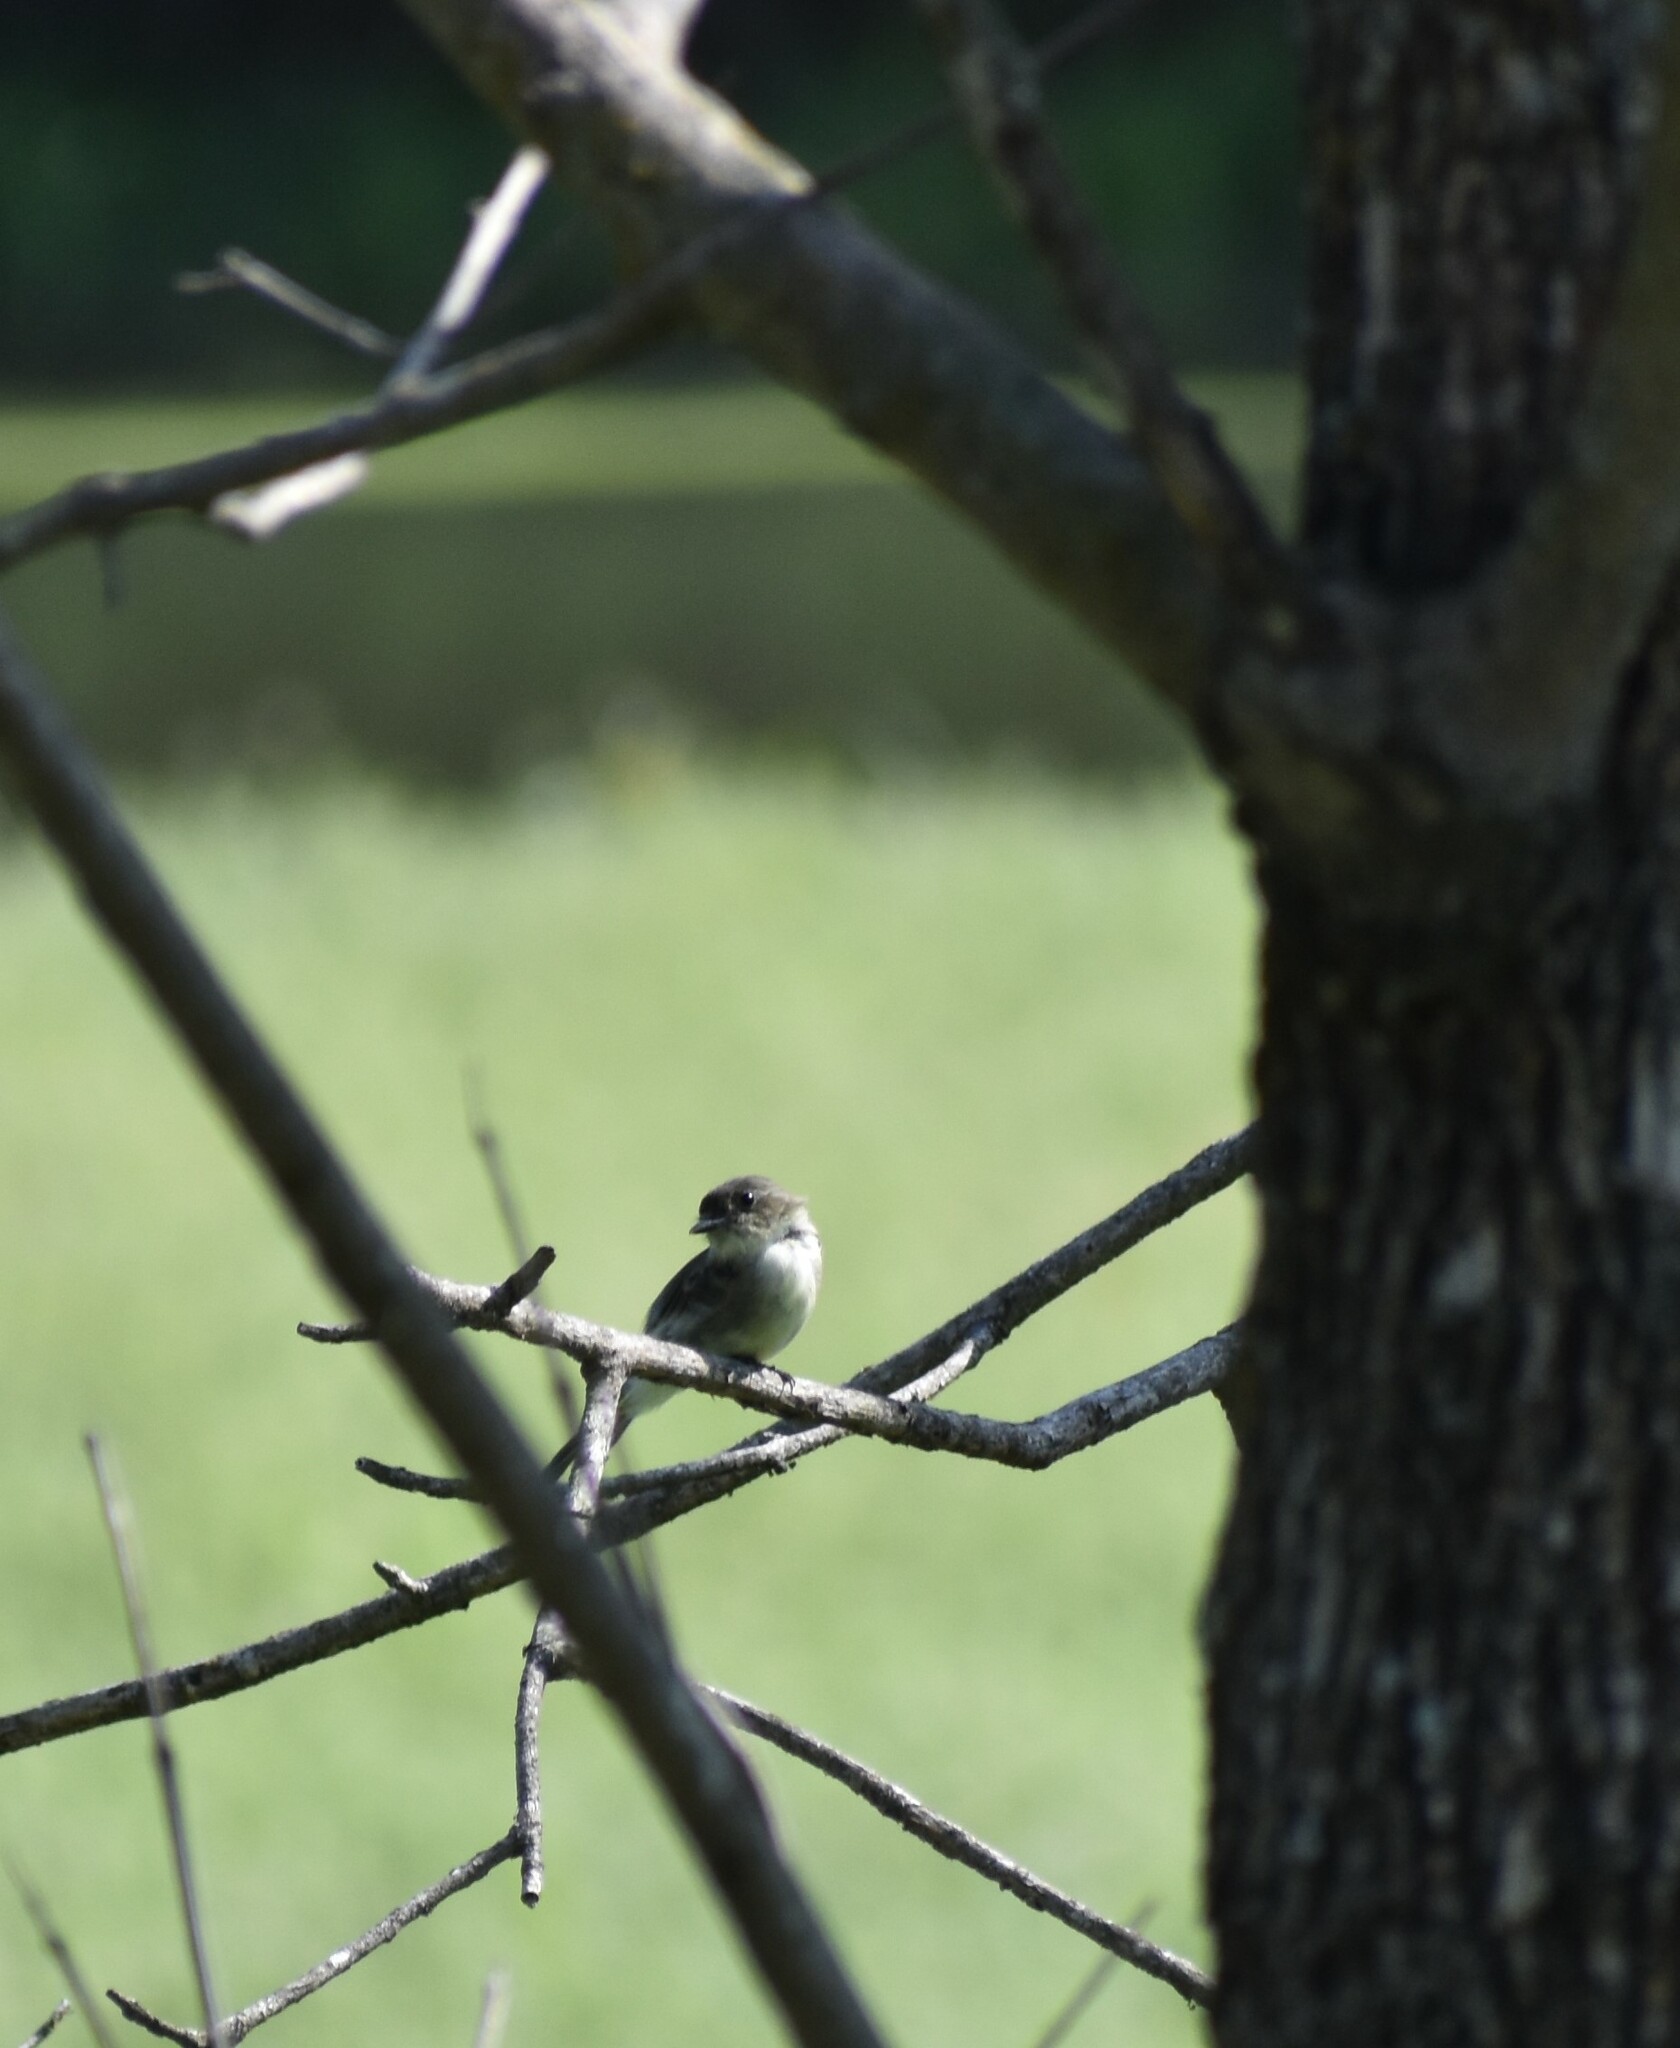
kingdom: Animalia
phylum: Chordata
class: Aves
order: Passeriformes
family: Tyrannidae
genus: Sayornis
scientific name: Sayornis phoebe
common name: Eastern phoebe
